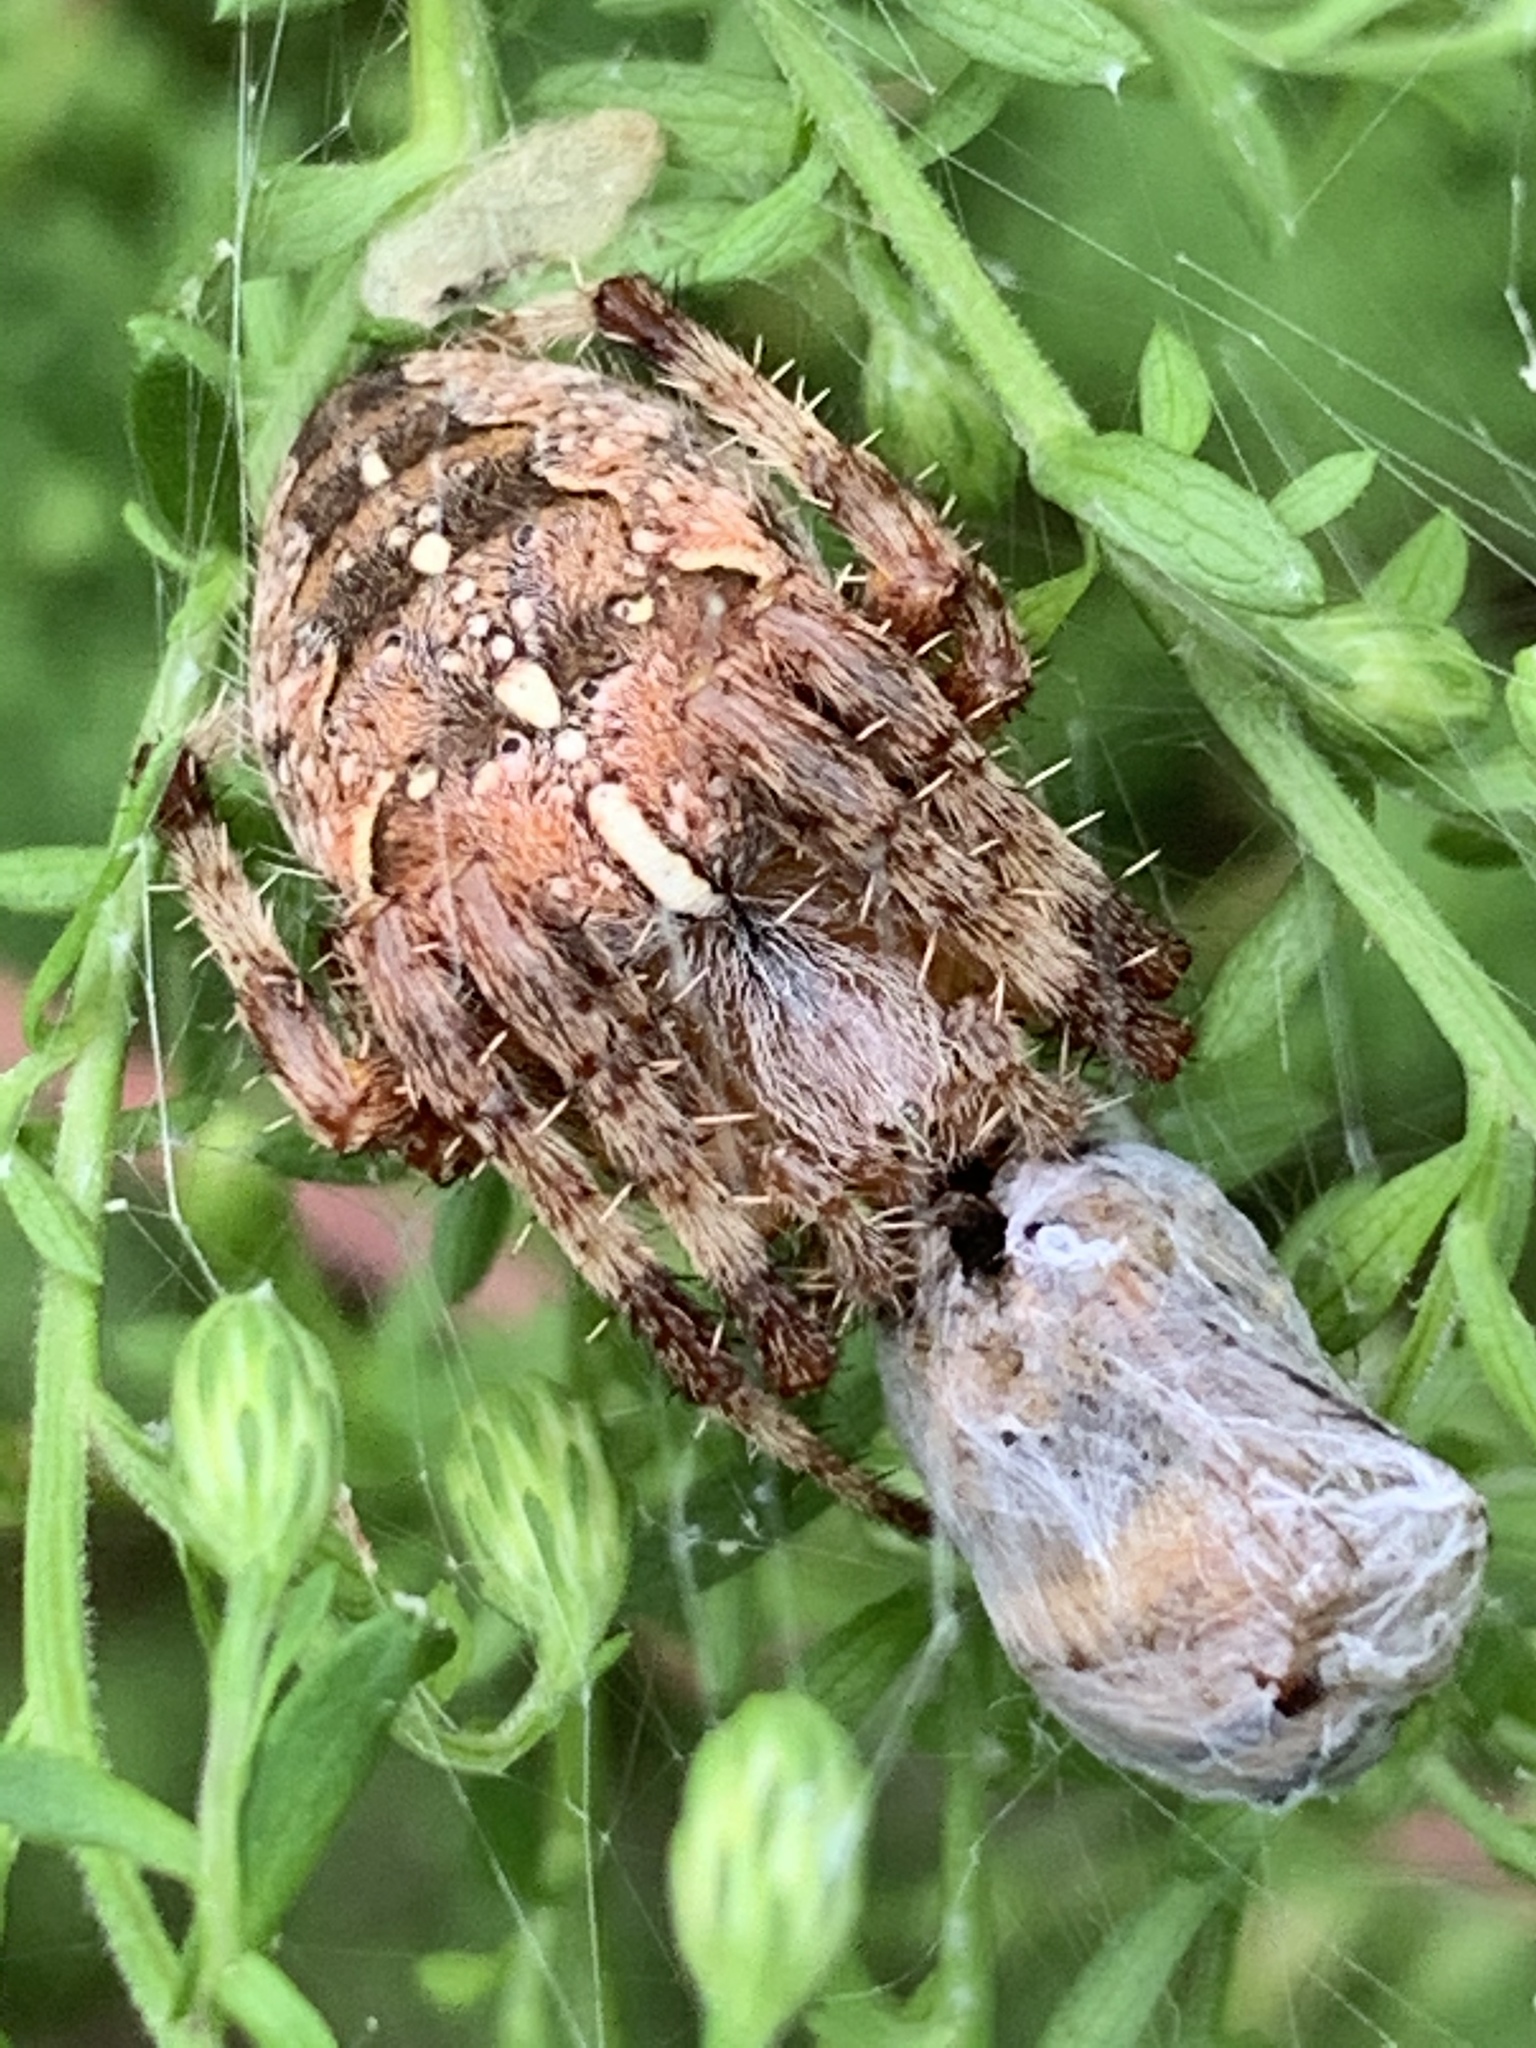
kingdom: Animalia
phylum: Arthropoda
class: Arachnida
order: Araneae
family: Araneidae
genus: Araneus
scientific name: Araneus diadematus
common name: Cross orbweaver
